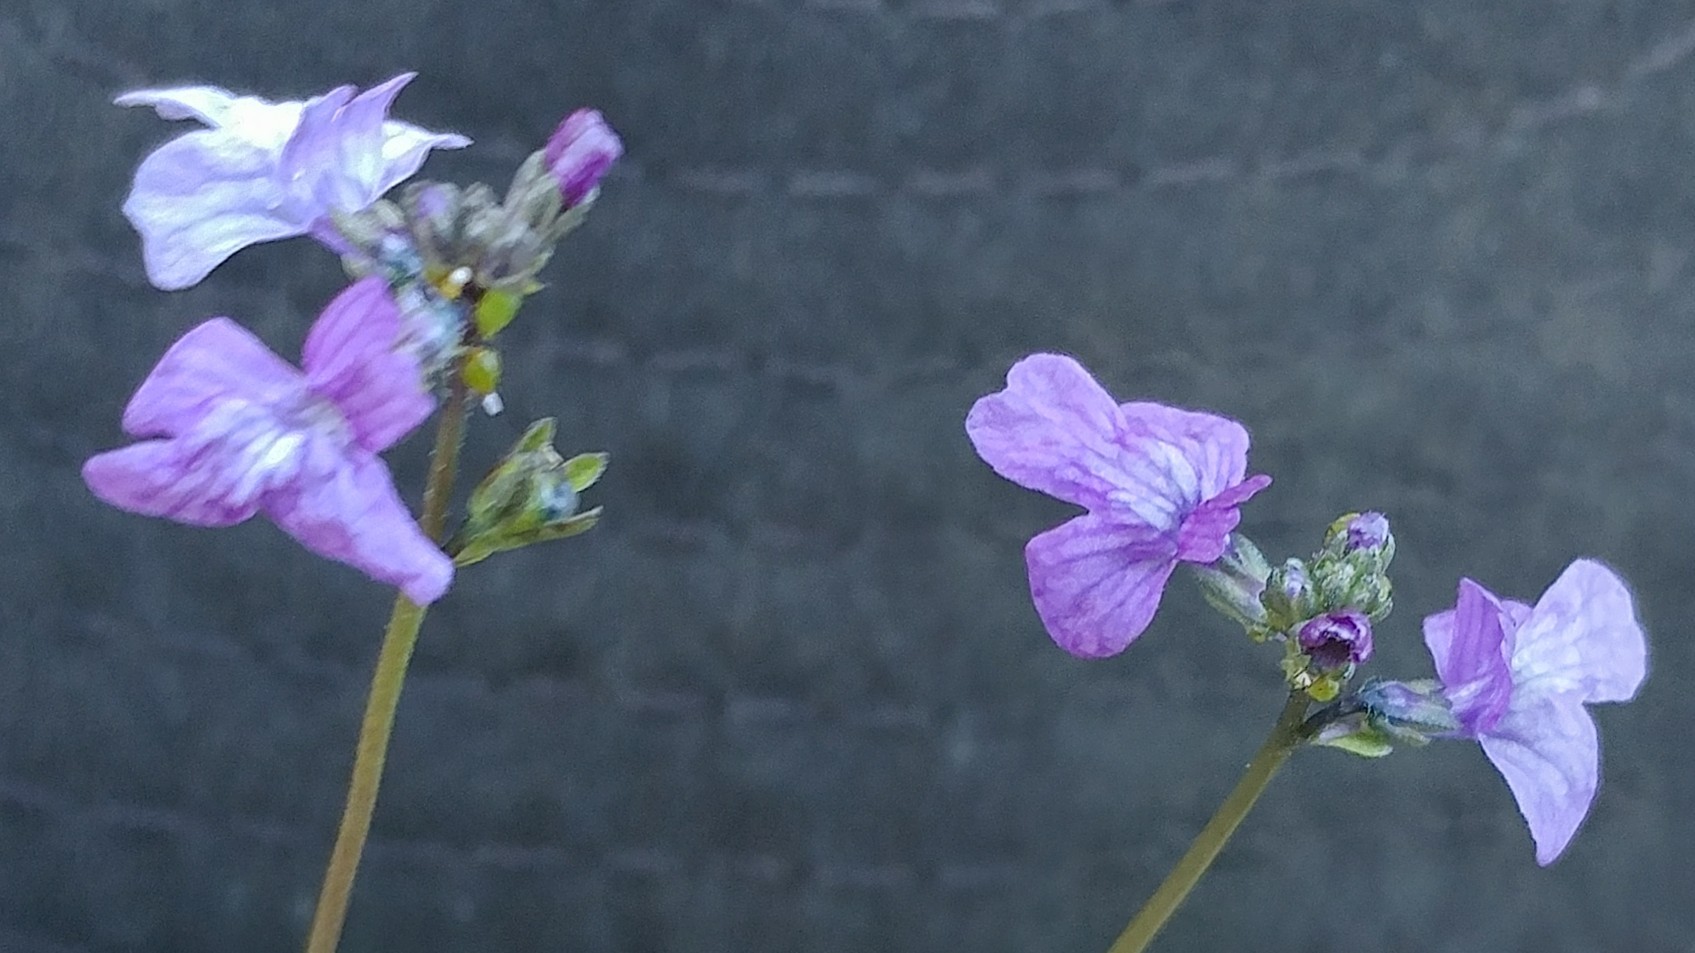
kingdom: Plantae
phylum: Tracheophyta
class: Magnoliopsida
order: Lamiales
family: Plantaginaceae
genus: Nuttallanthus
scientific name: Nuttallanthus texanus
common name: Texas toadflax
